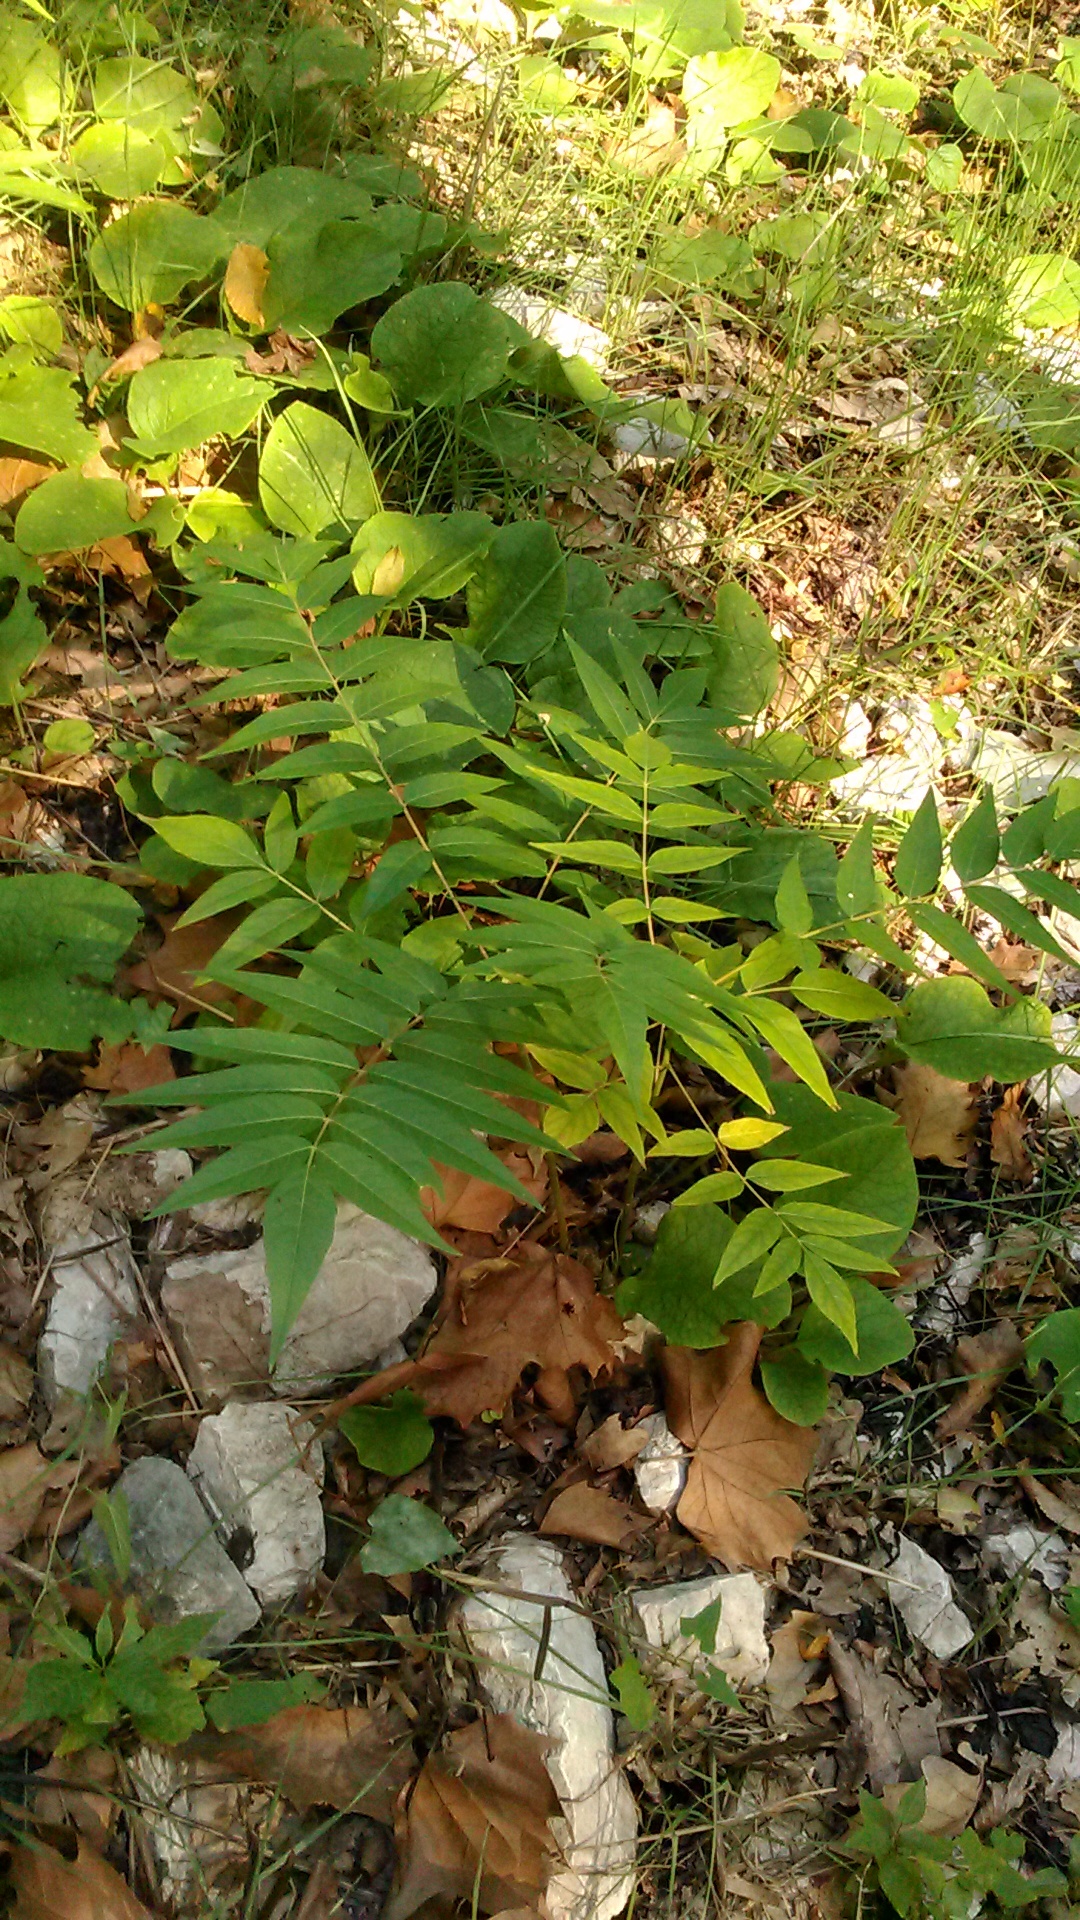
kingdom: Plantae
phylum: Tracheophyta
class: Magnoliopsida
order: Sapindales
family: Simaroubaceae
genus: Ailanthus
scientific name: Ailanthus altissima
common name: Tree-of-heaven
